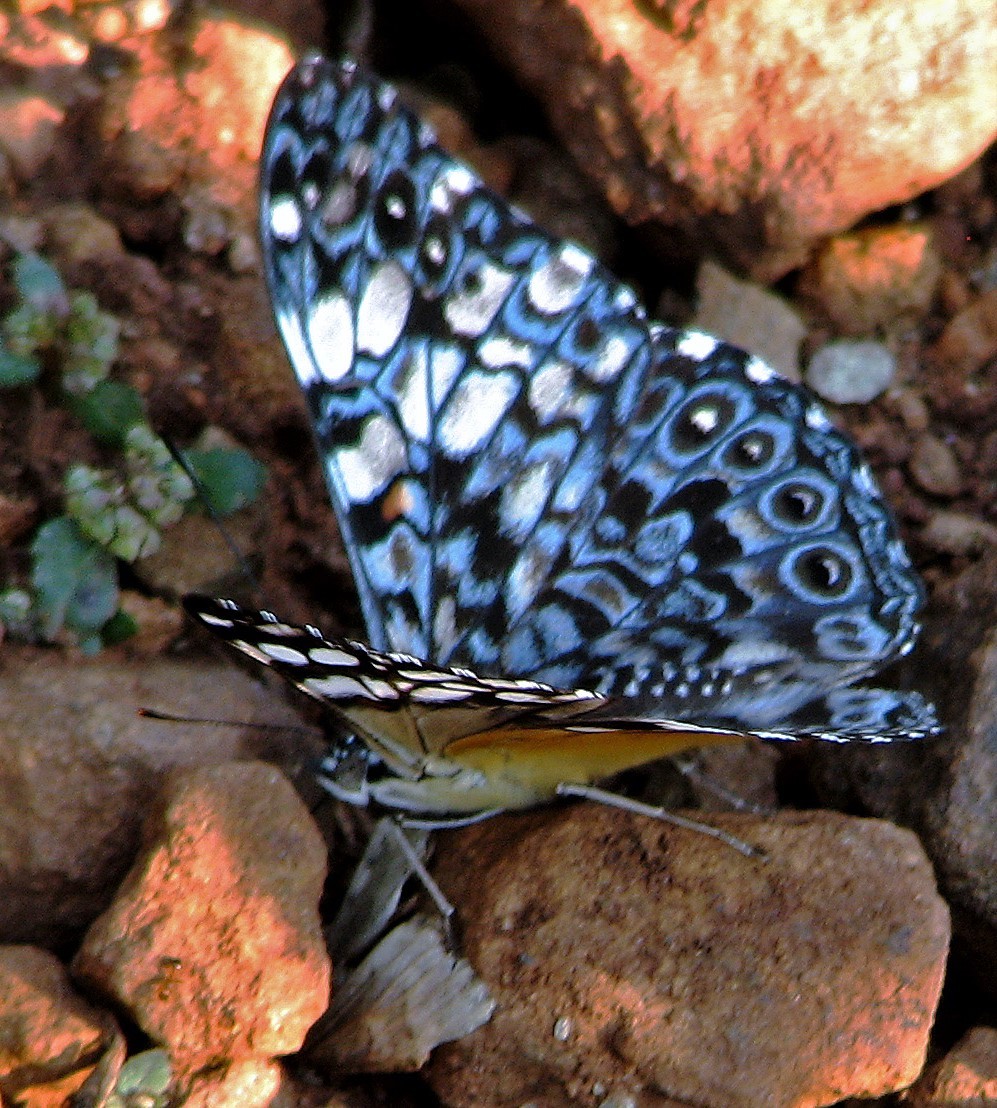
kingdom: Animalia
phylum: Arthropoda
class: Insecta
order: Lepidoptera
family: Nymphalidae
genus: Hamadryas
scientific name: Hamadryas fornax
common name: Orange cracker
